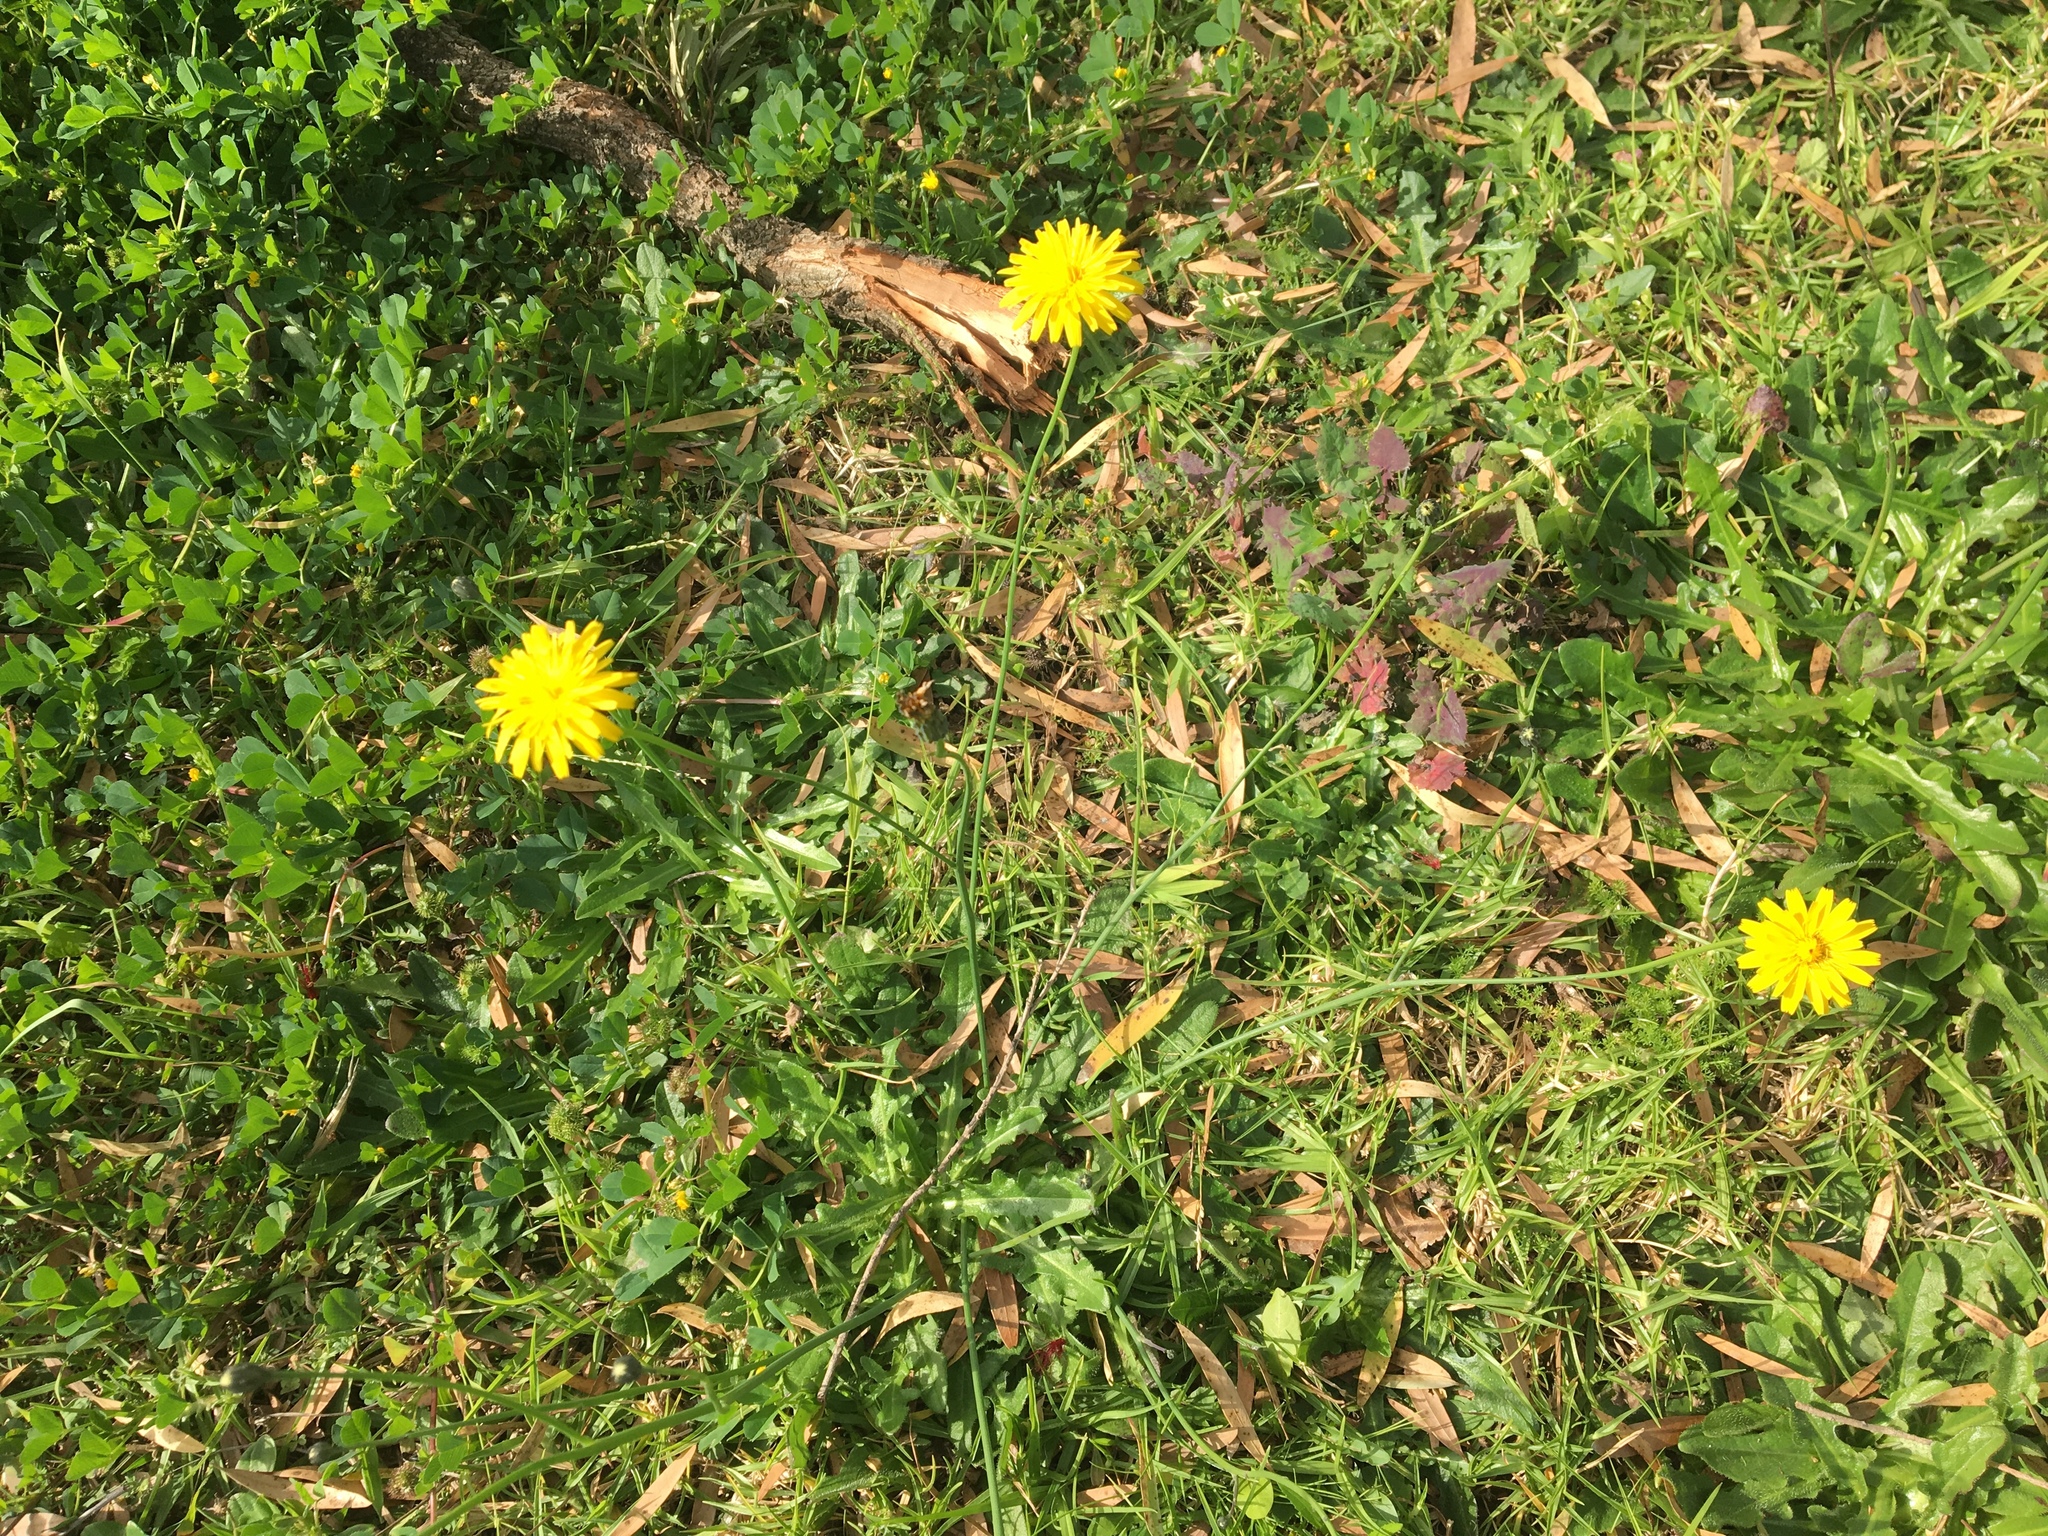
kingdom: Plantae
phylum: Tracheophyta
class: Magnoliopsida
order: Asterales
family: Asteraceae
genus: Hypochaeris
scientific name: Hypochaeris radicata
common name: Flatweed
